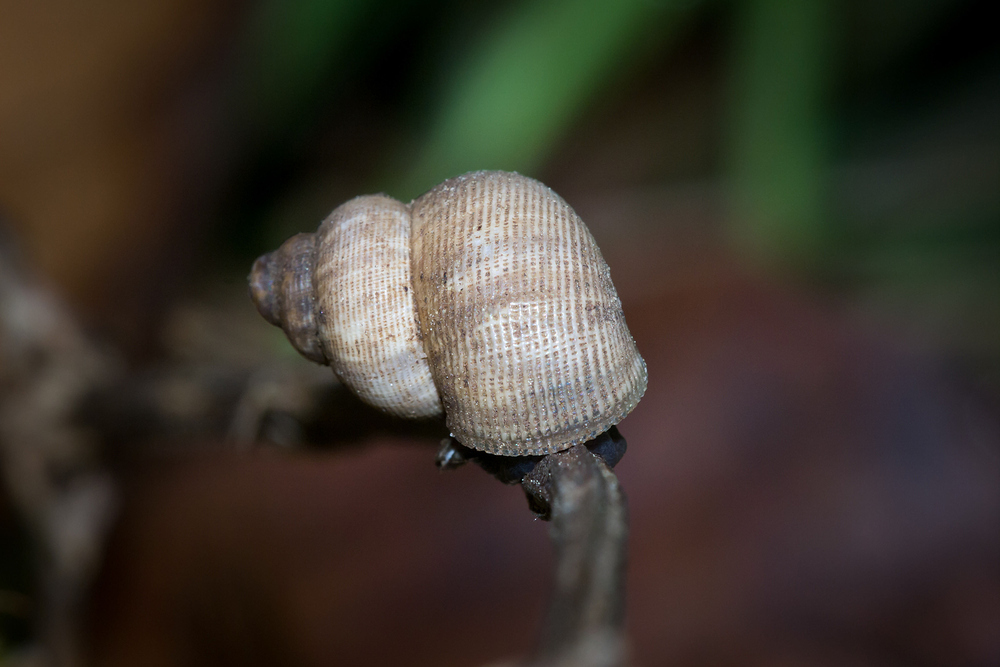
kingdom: Animalia
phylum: Mollusca
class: Gastropoda
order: Littorinimorpha
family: Pomatiidae
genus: Pomatias
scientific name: Pomatias elegans
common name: Red-mouthed snail
